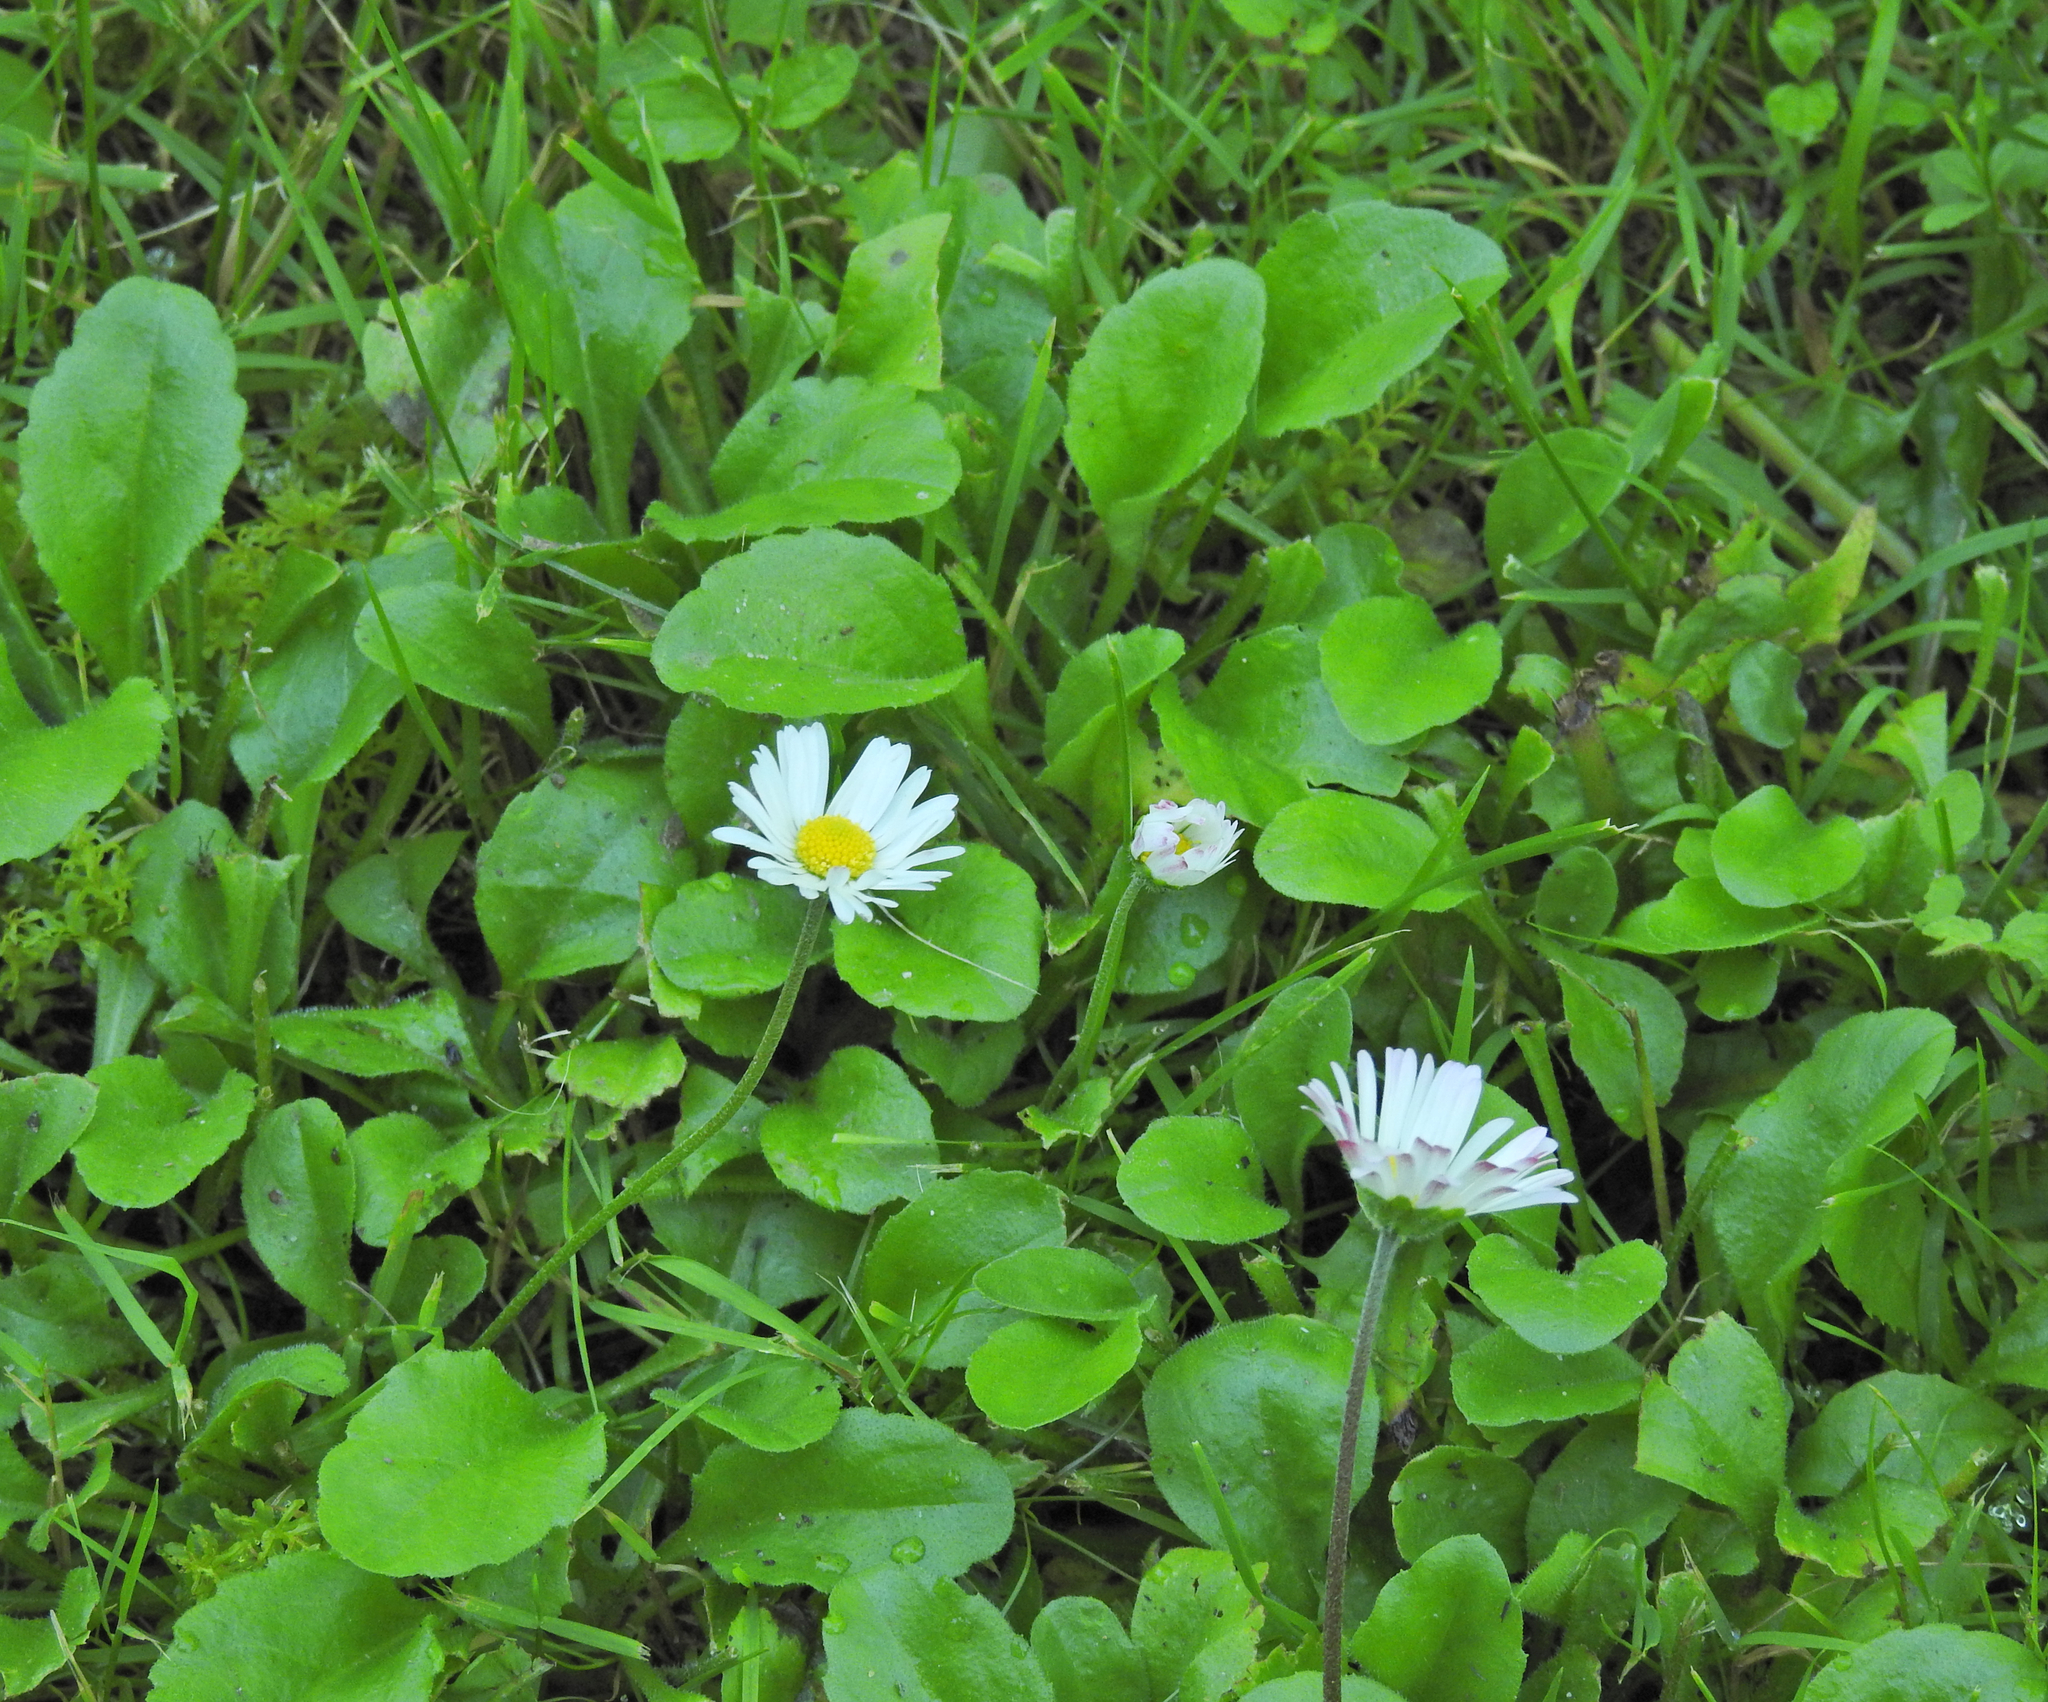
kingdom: Plantae
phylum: Tracheophyta
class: Magnoliopsida
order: Asterales
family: Asteraceae
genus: Bellis
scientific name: Bellis perennis
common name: Lawndaisy
